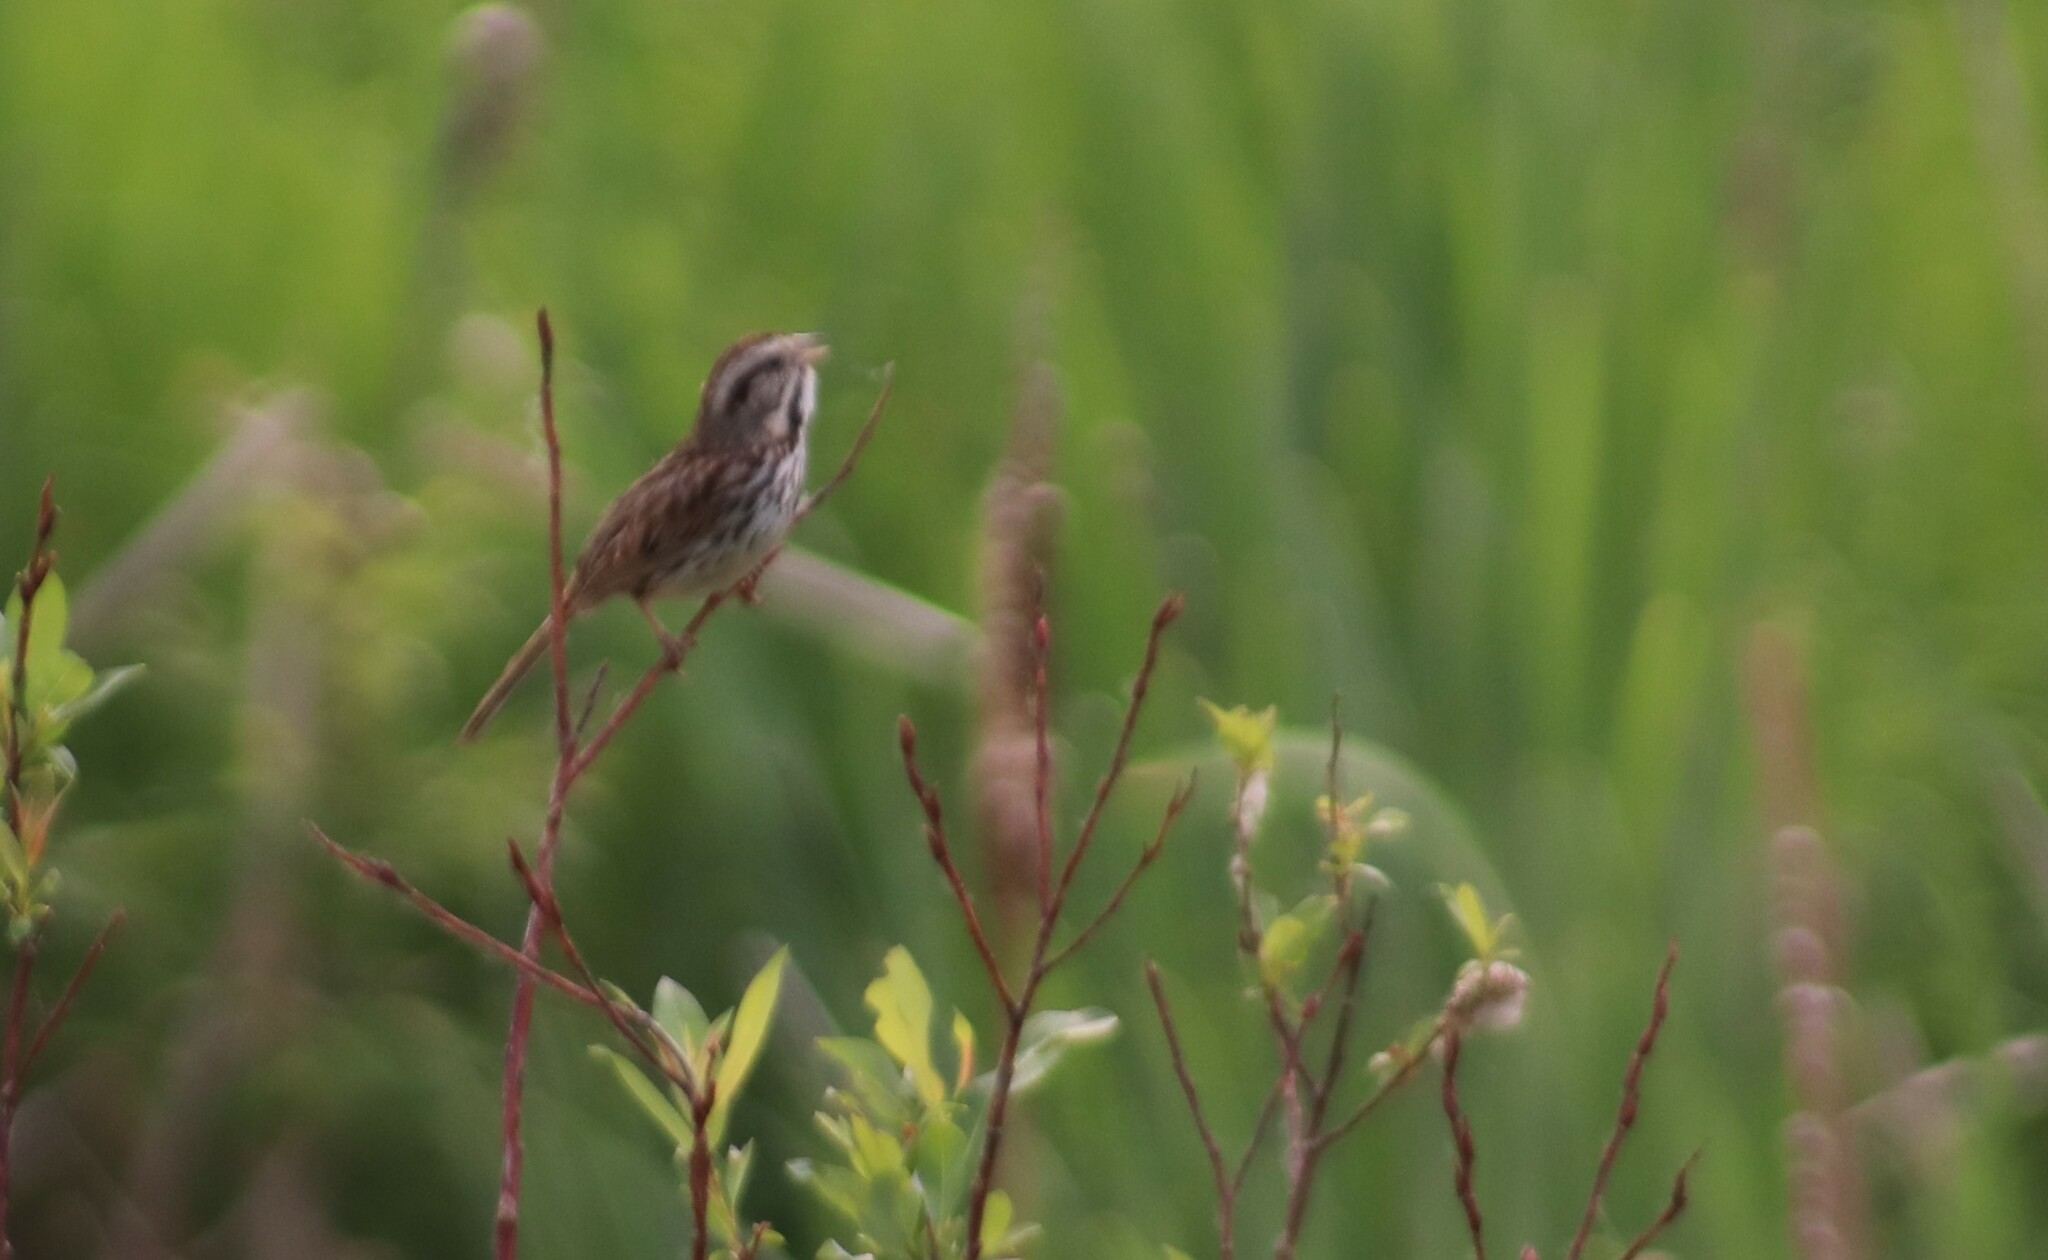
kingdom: Animalia
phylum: Chordata
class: Aves
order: Passeriformes
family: Passerellidae
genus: Melospiza
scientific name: Melospiza melodia
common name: Song sparrow
